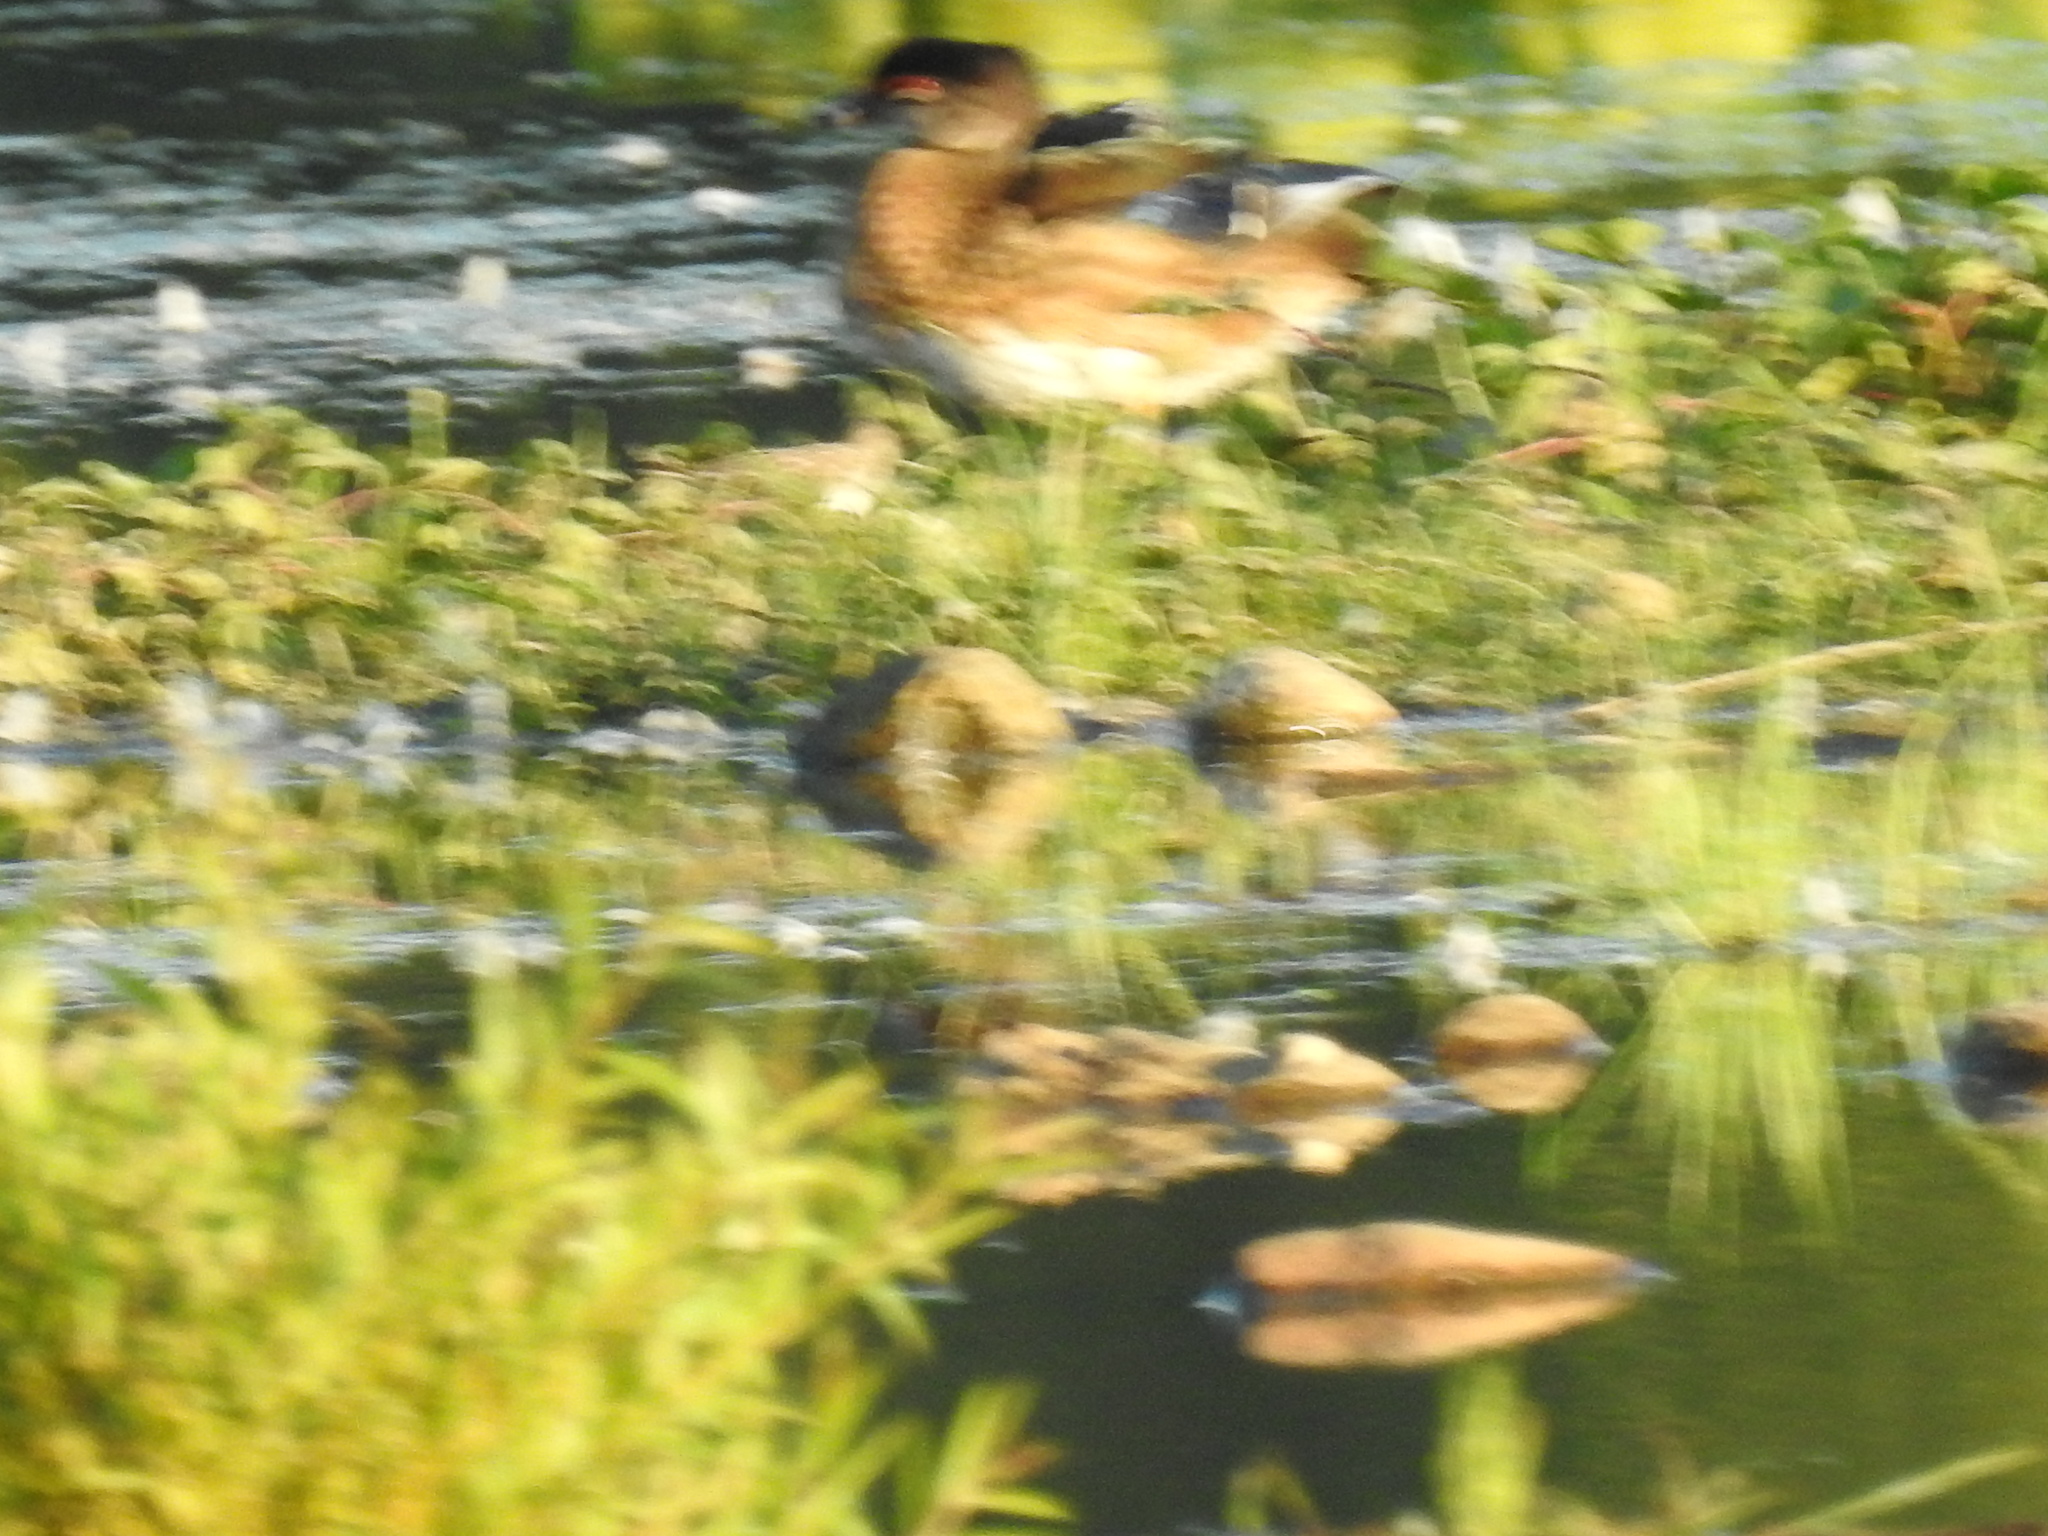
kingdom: Animalia
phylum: Chordata
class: Aves
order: Anseriformes
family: Anatidae
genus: Aix
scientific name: Aix sponsa
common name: Wood duck
